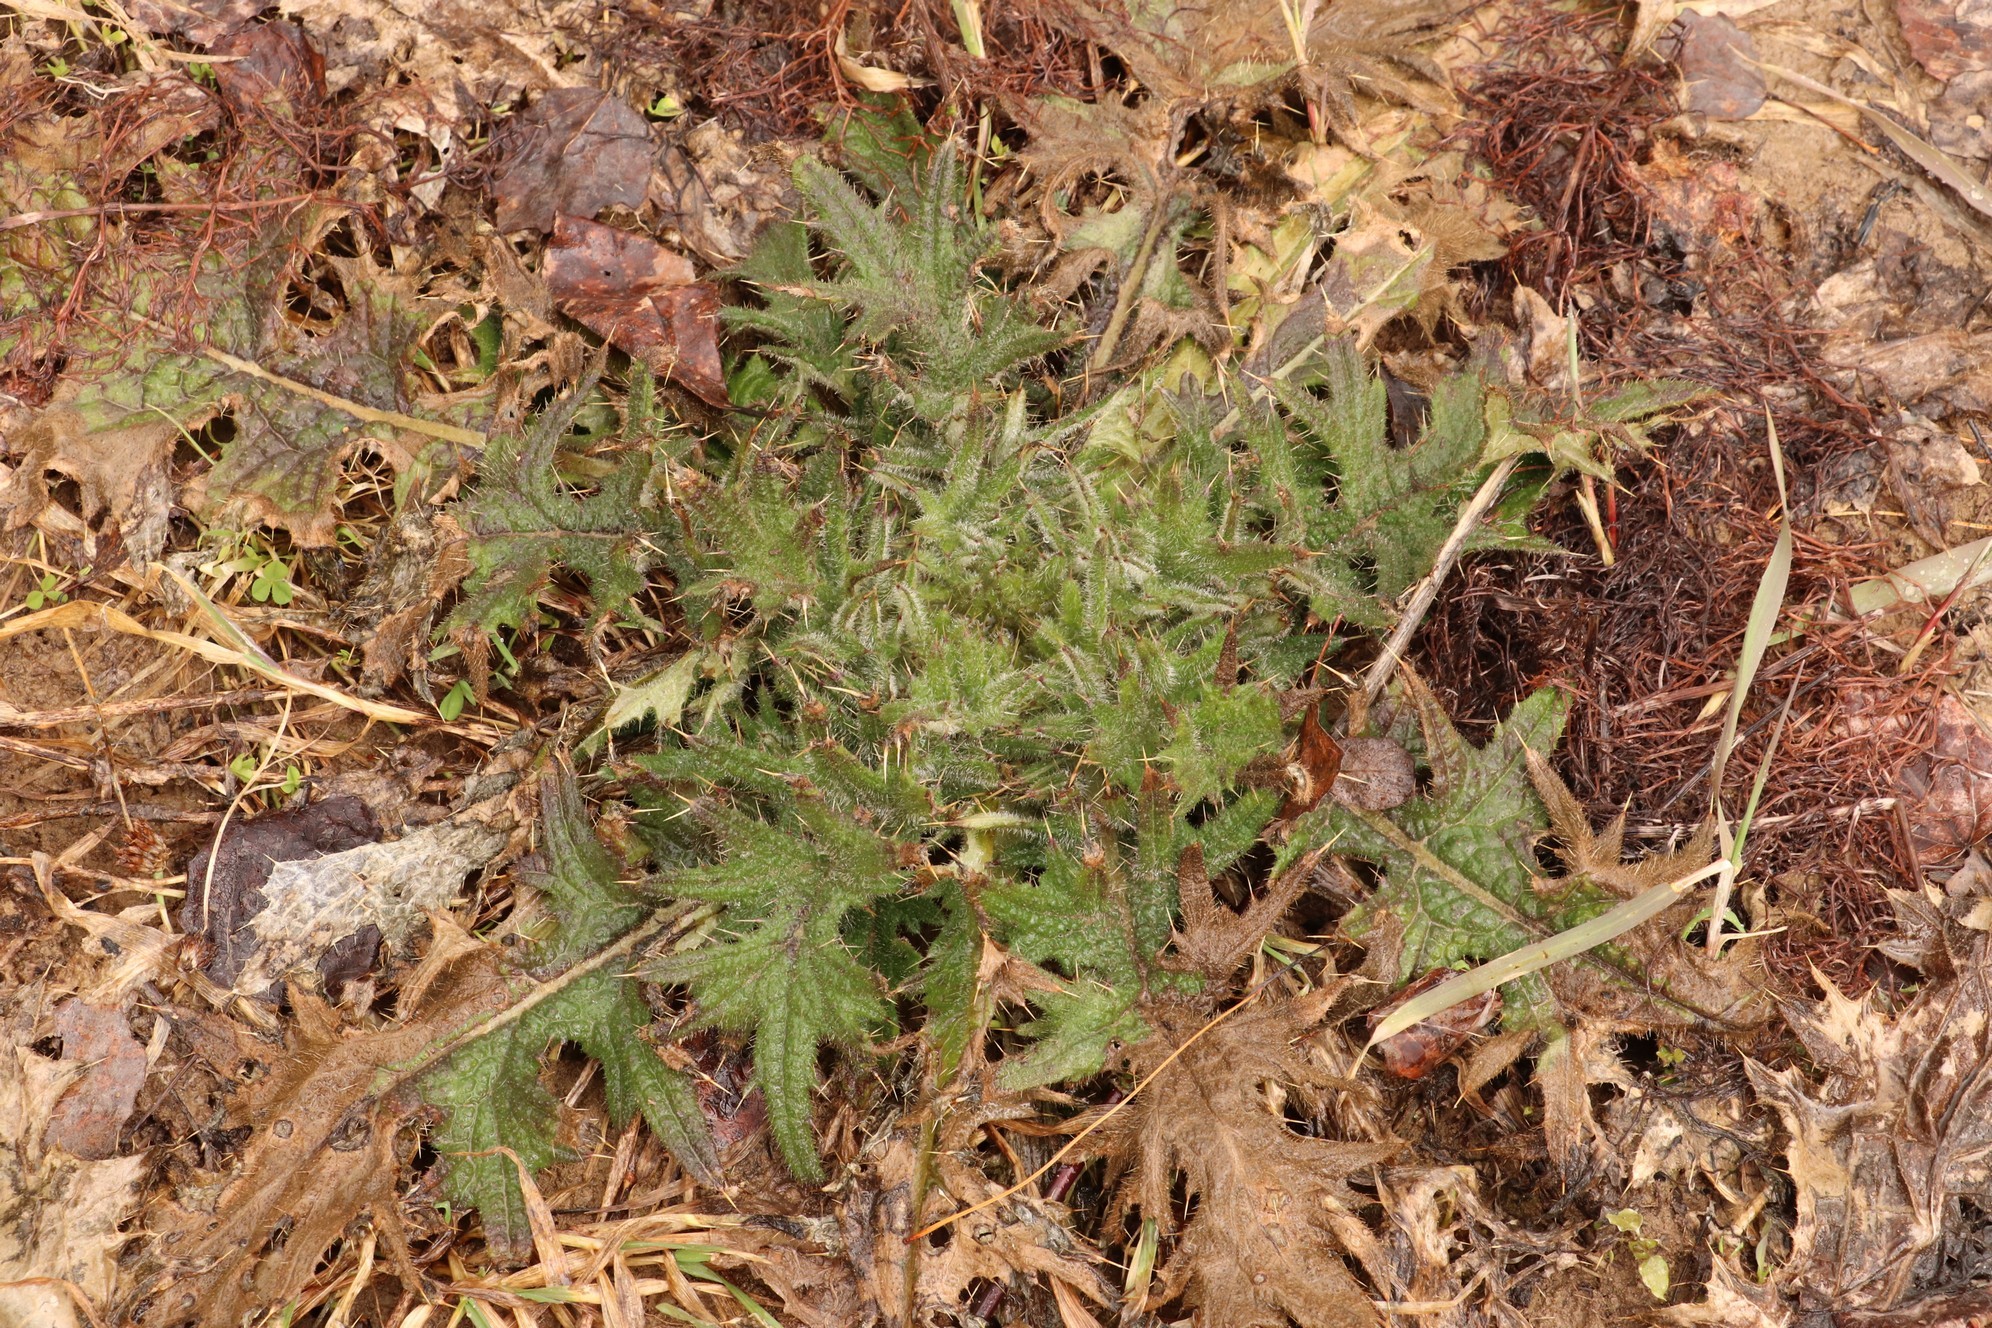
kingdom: Plantae
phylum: Tracheophyta
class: Magnoliopsida
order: Asterales
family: Asteraceae
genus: Cirsium
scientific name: Cirsium vulgare
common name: Bull thistle
